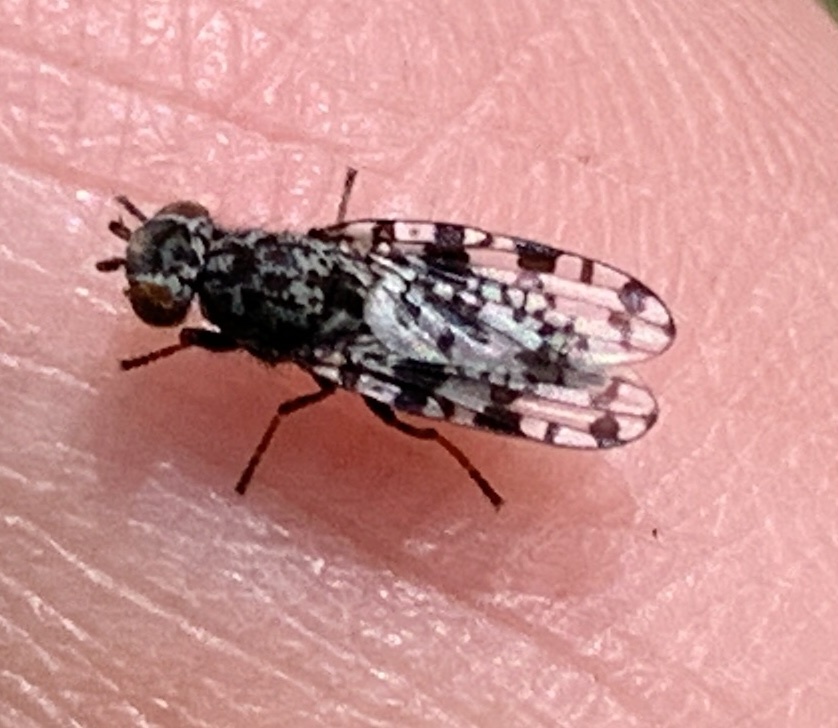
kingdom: Animalia
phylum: Arthropoda
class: Insecta
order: Diptera
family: Ulidiidae
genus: Pseudotephritis
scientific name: Pseudotephritis corticalis
